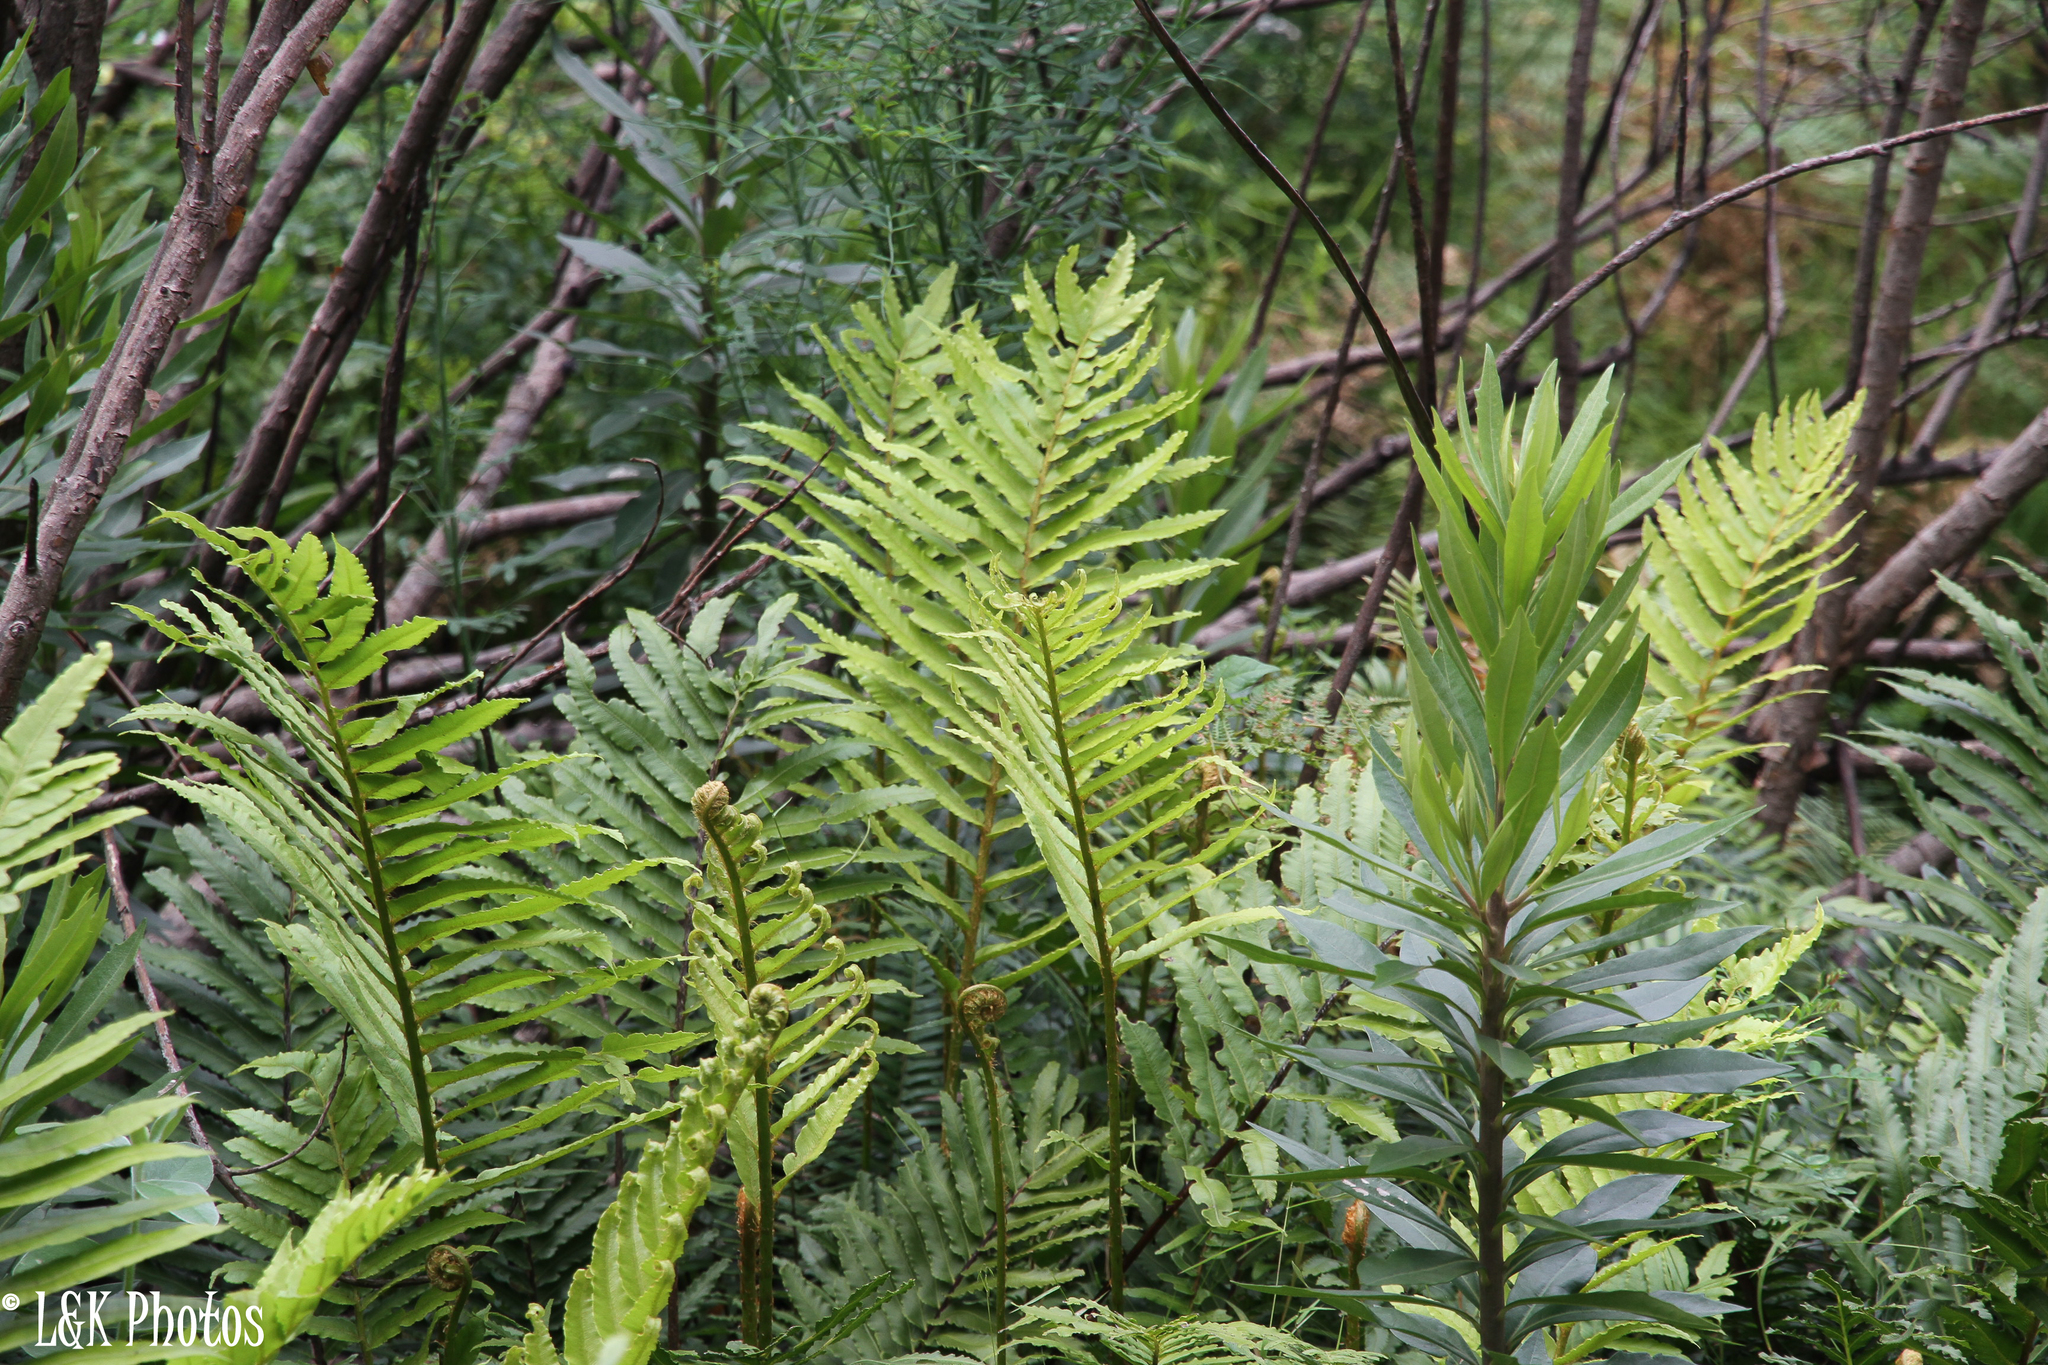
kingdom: Plantae
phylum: Tracheophyta
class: Polypodiopsida
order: Polypodiales
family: Blechnaceae
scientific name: Blechnaceae
